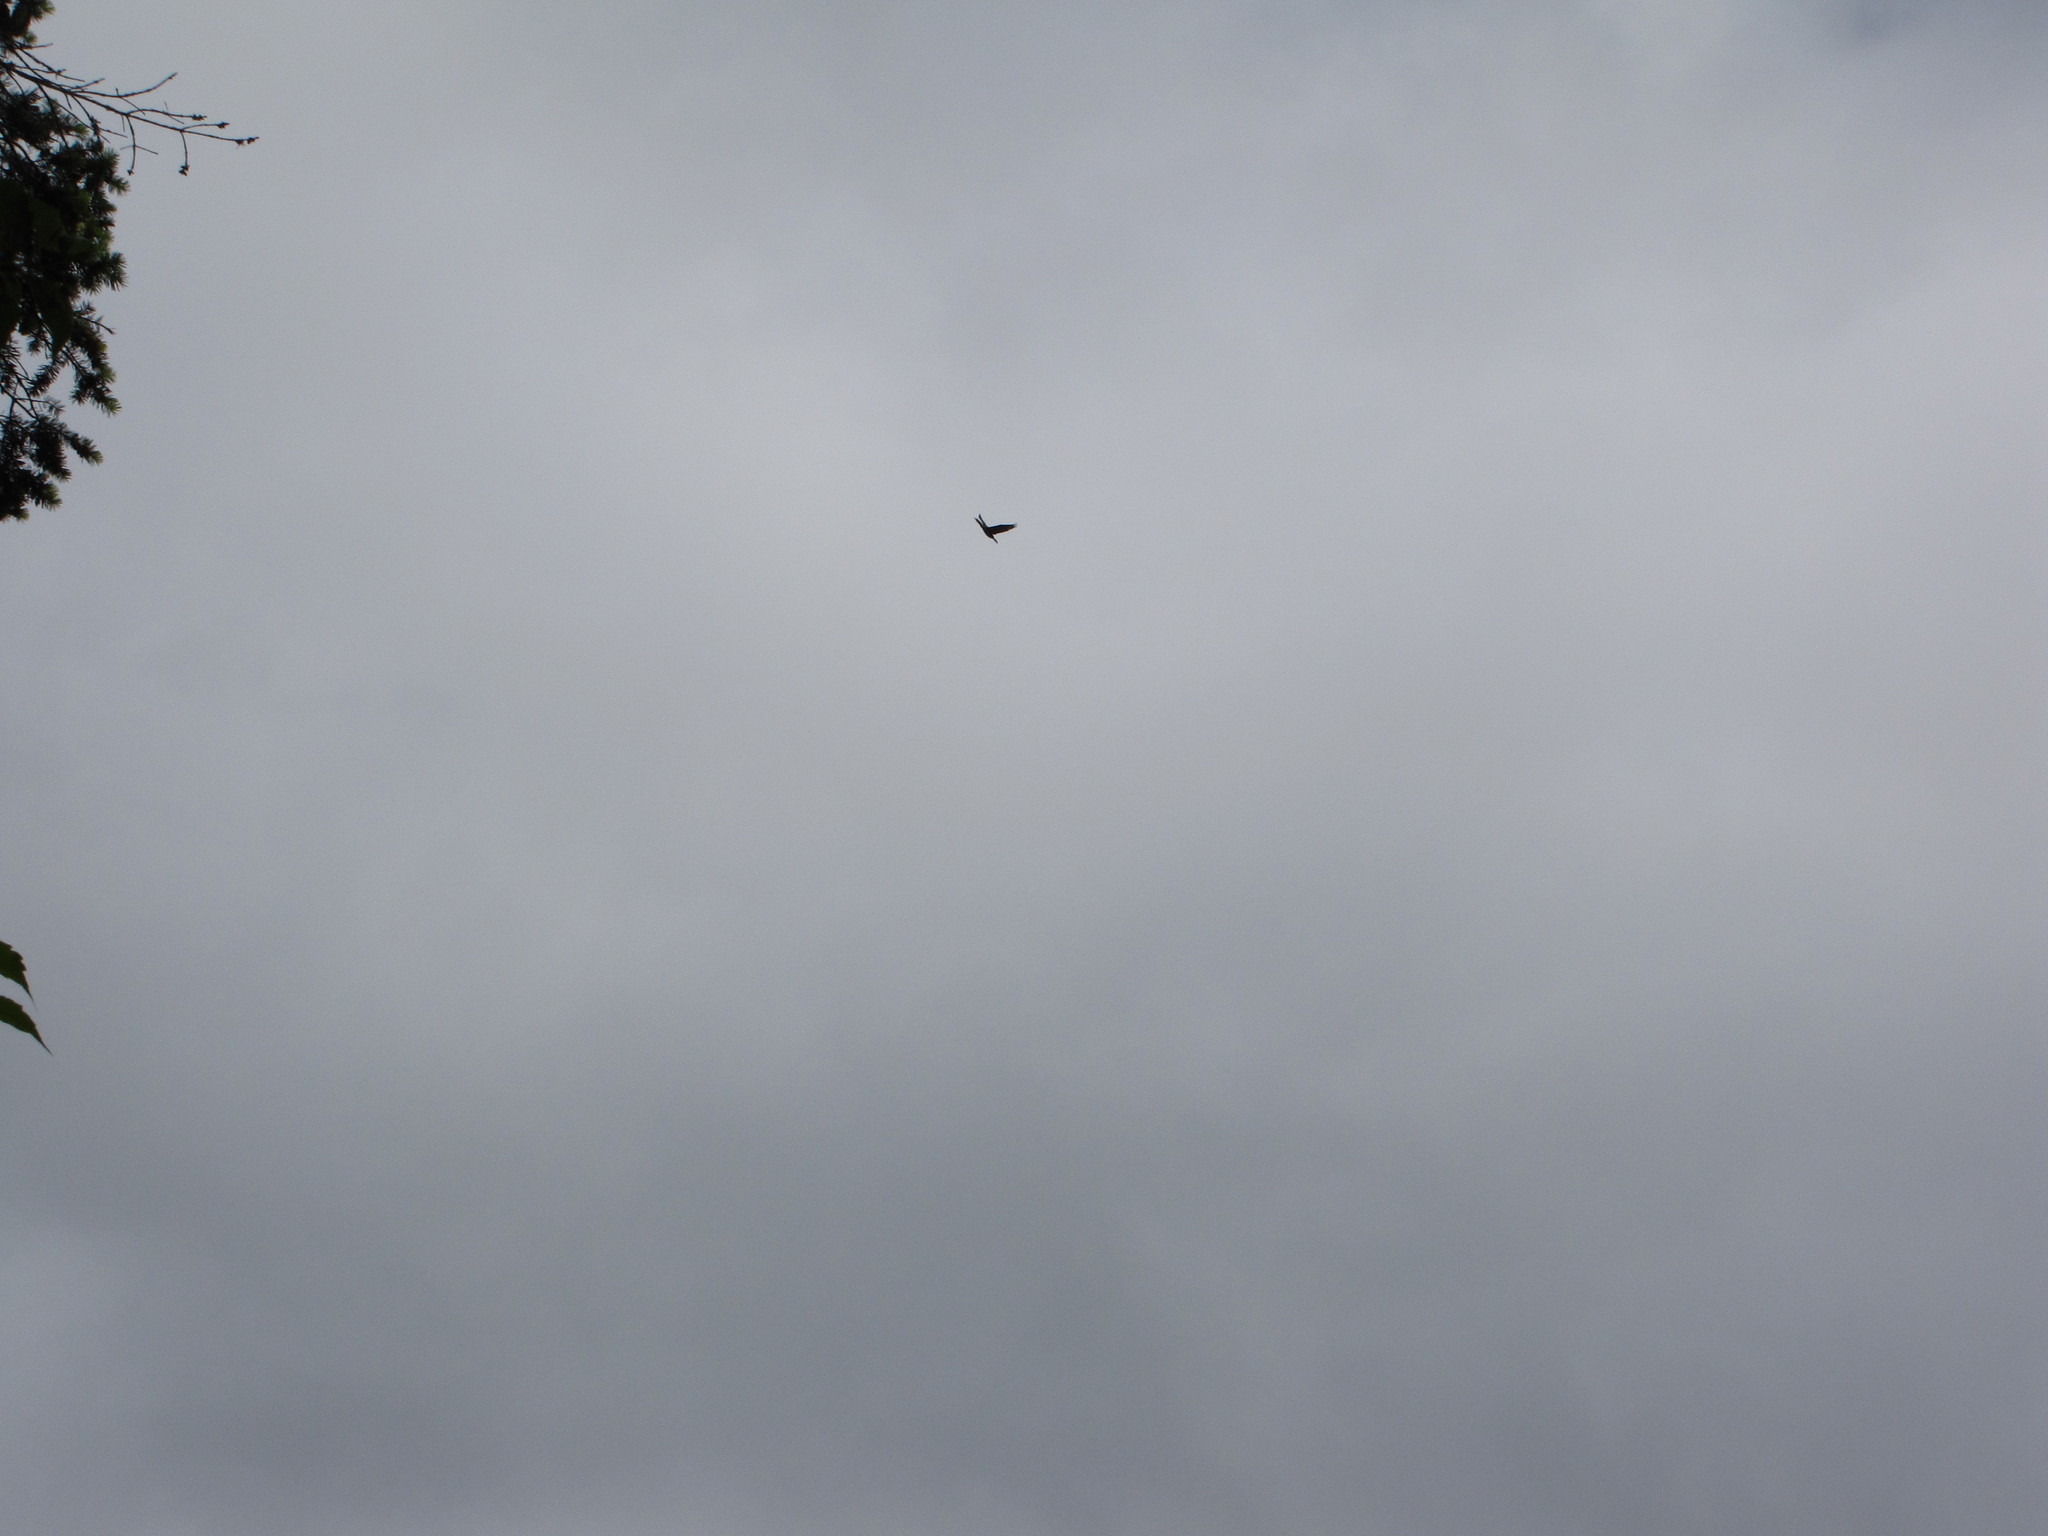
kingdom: Animalia
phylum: Chordata
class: Aves
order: Suliformes
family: Phalacrocoracidae
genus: Urile
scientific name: Urile
